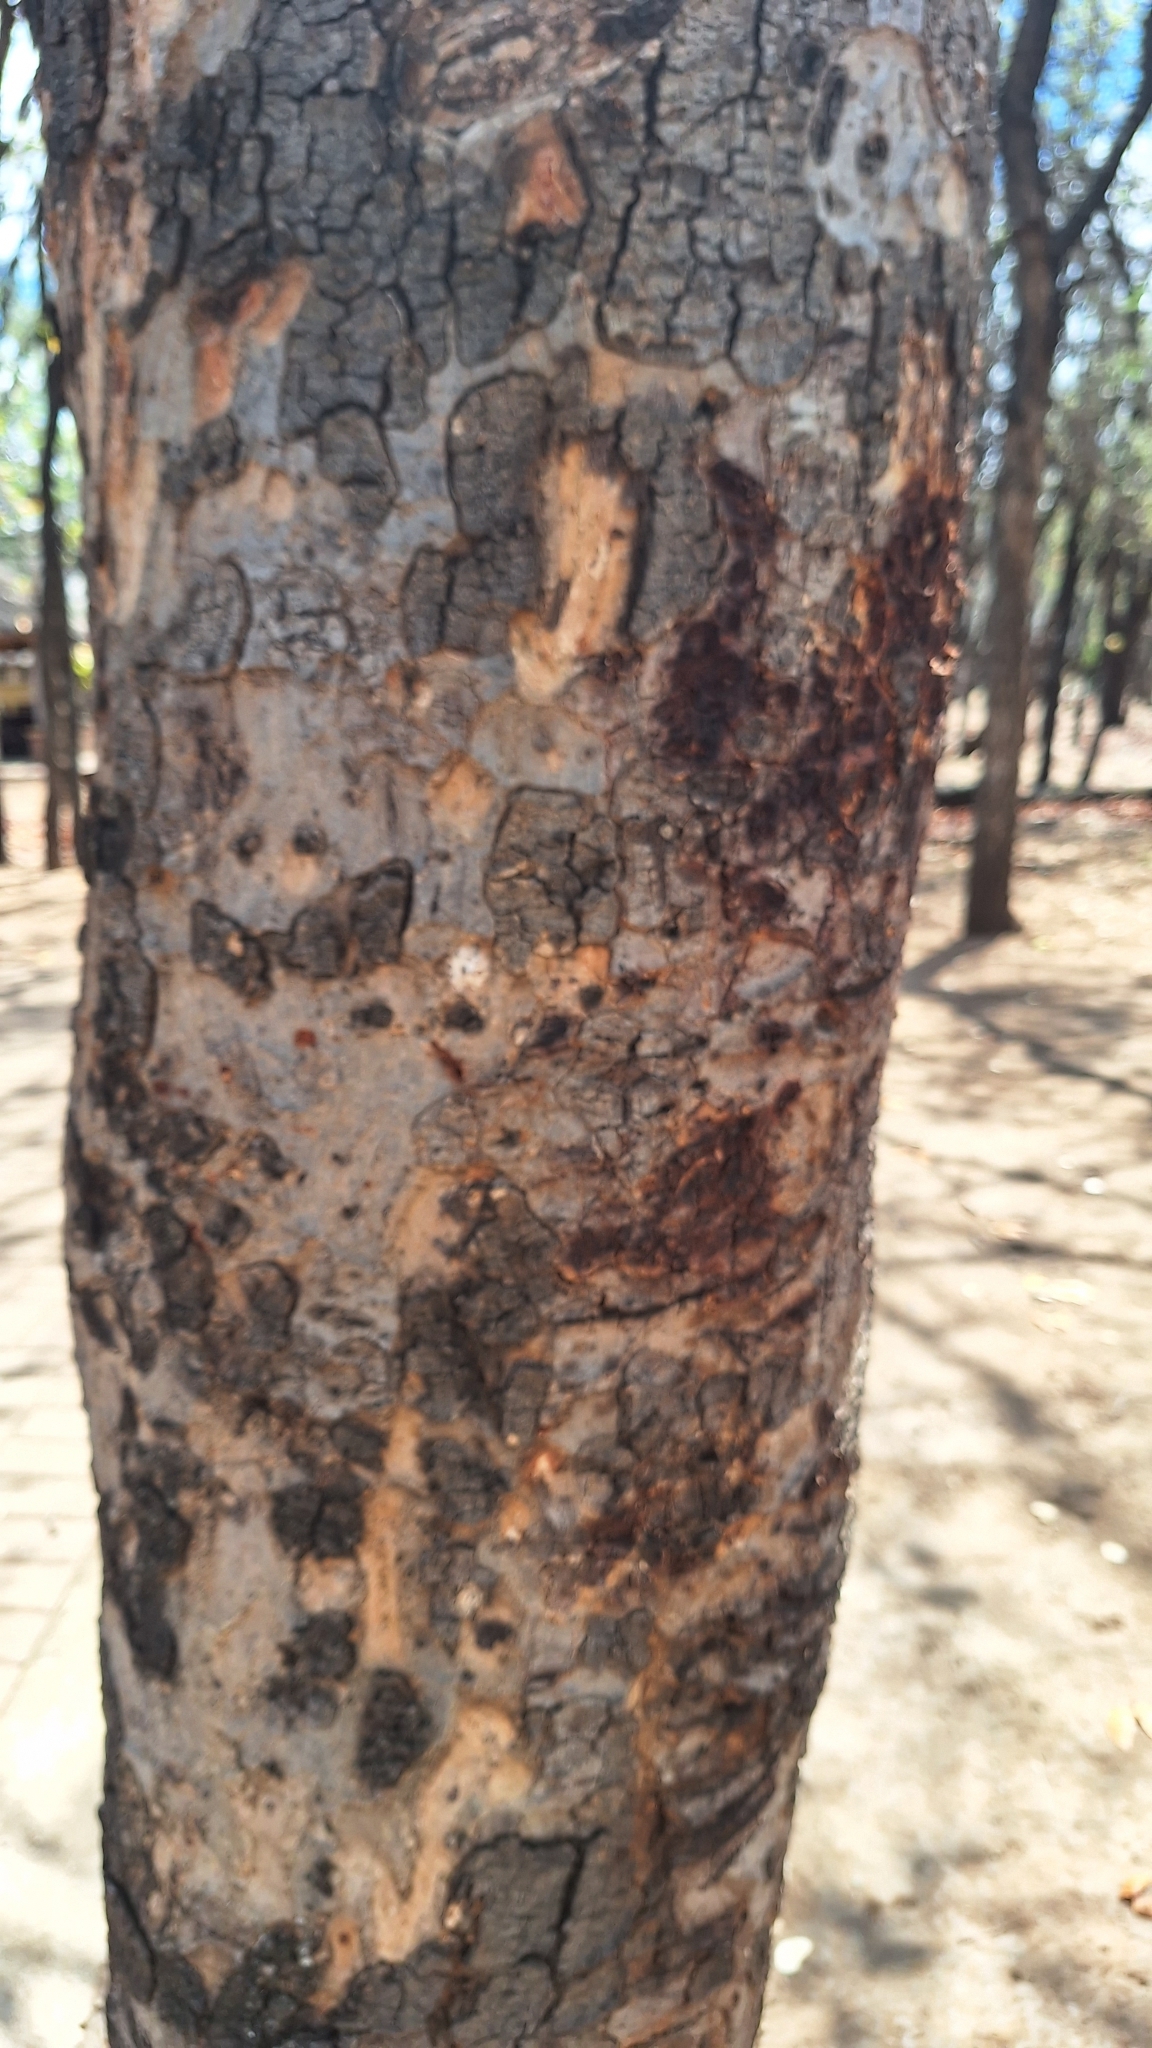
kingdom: Plantae
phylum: Tracheophyta
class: Magnoliopsida
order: Sapindales
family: Anacardiaceae
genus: Lannea
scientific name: Lannea schweinfurthii
